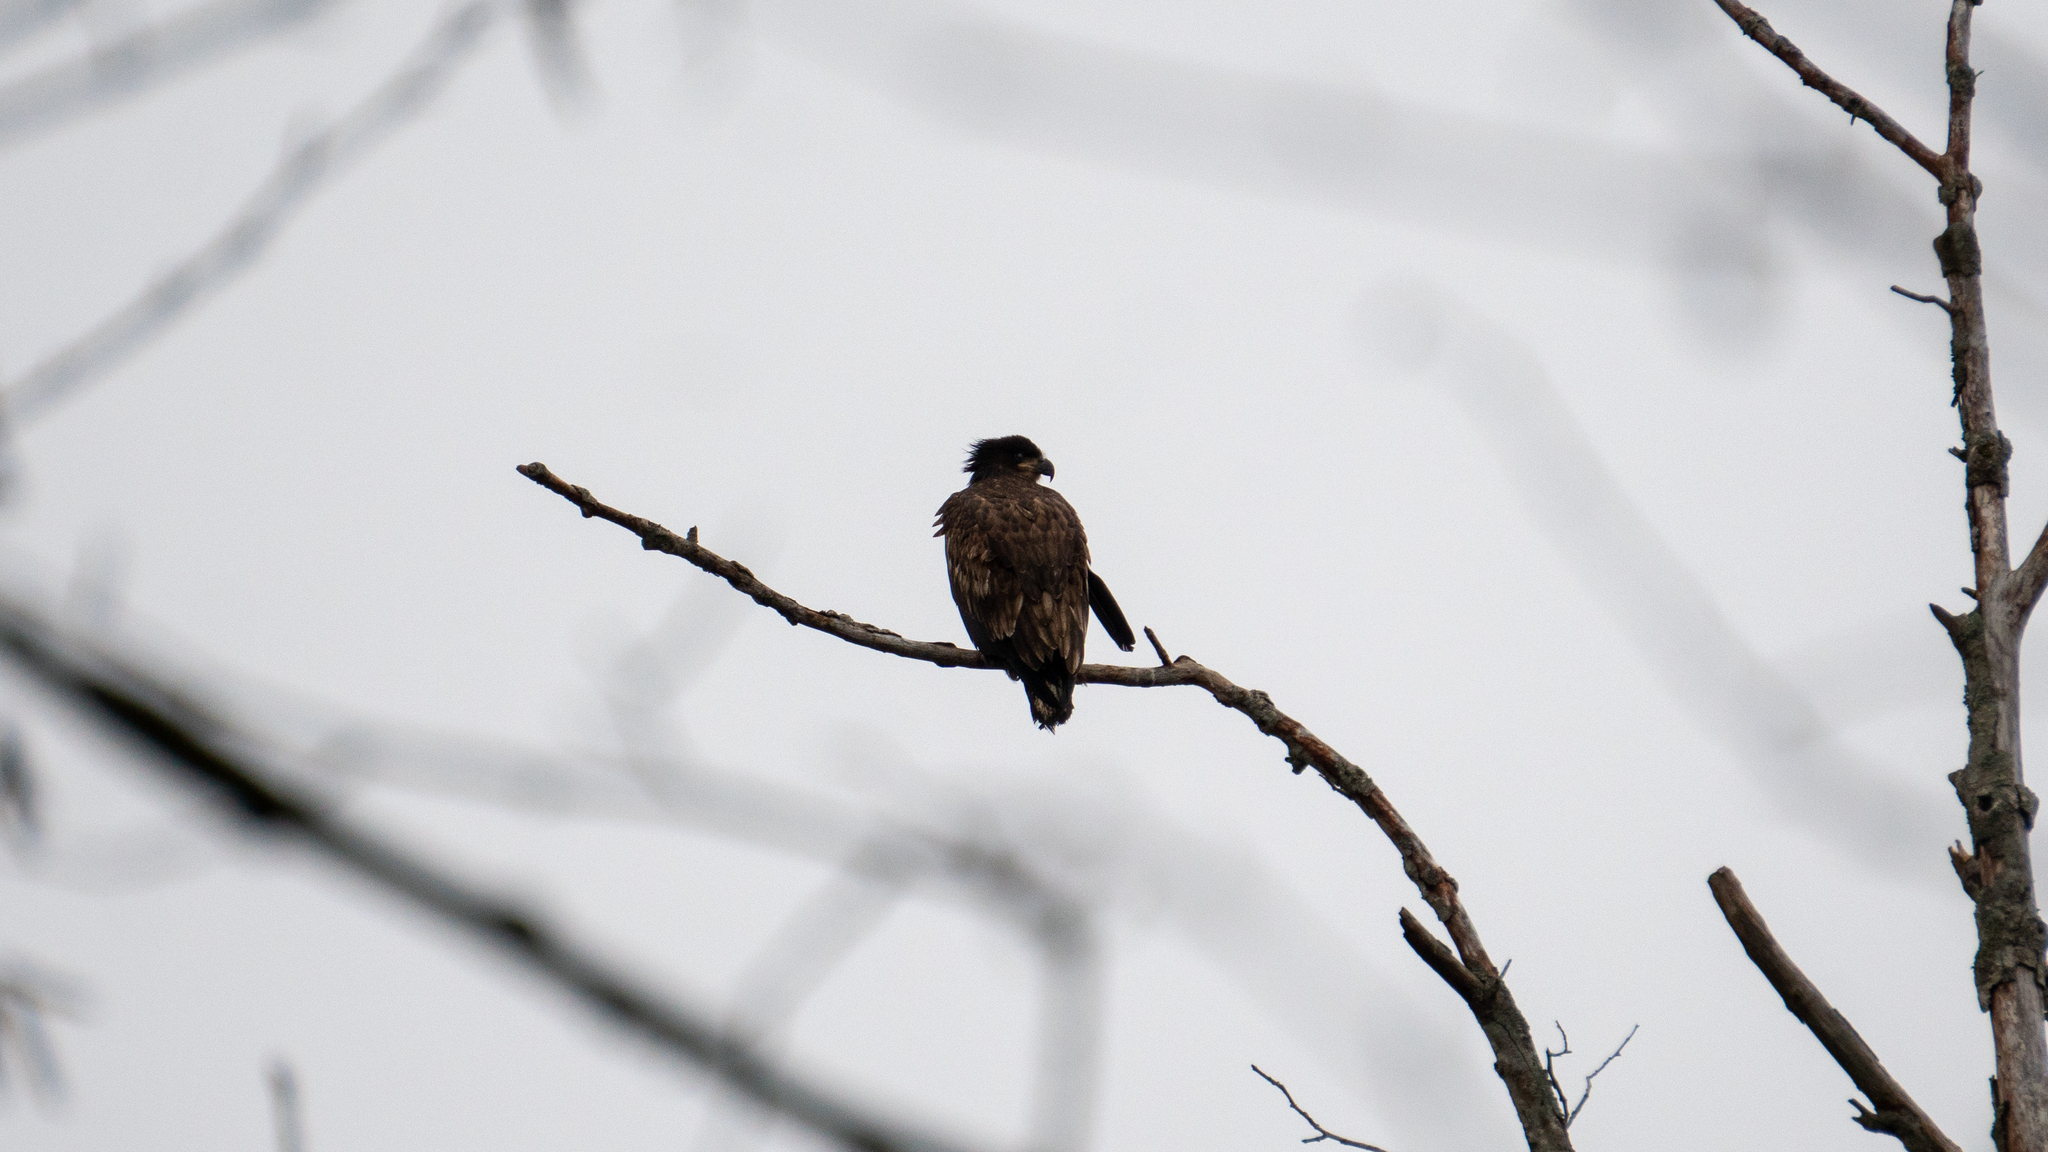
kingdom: Animalia
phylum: Chordata
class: Aves
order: Accipitriformes
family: Accipitridae
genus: Haliaeetus
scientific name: Haliaeetus leucocephalus
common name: Bald eagle
